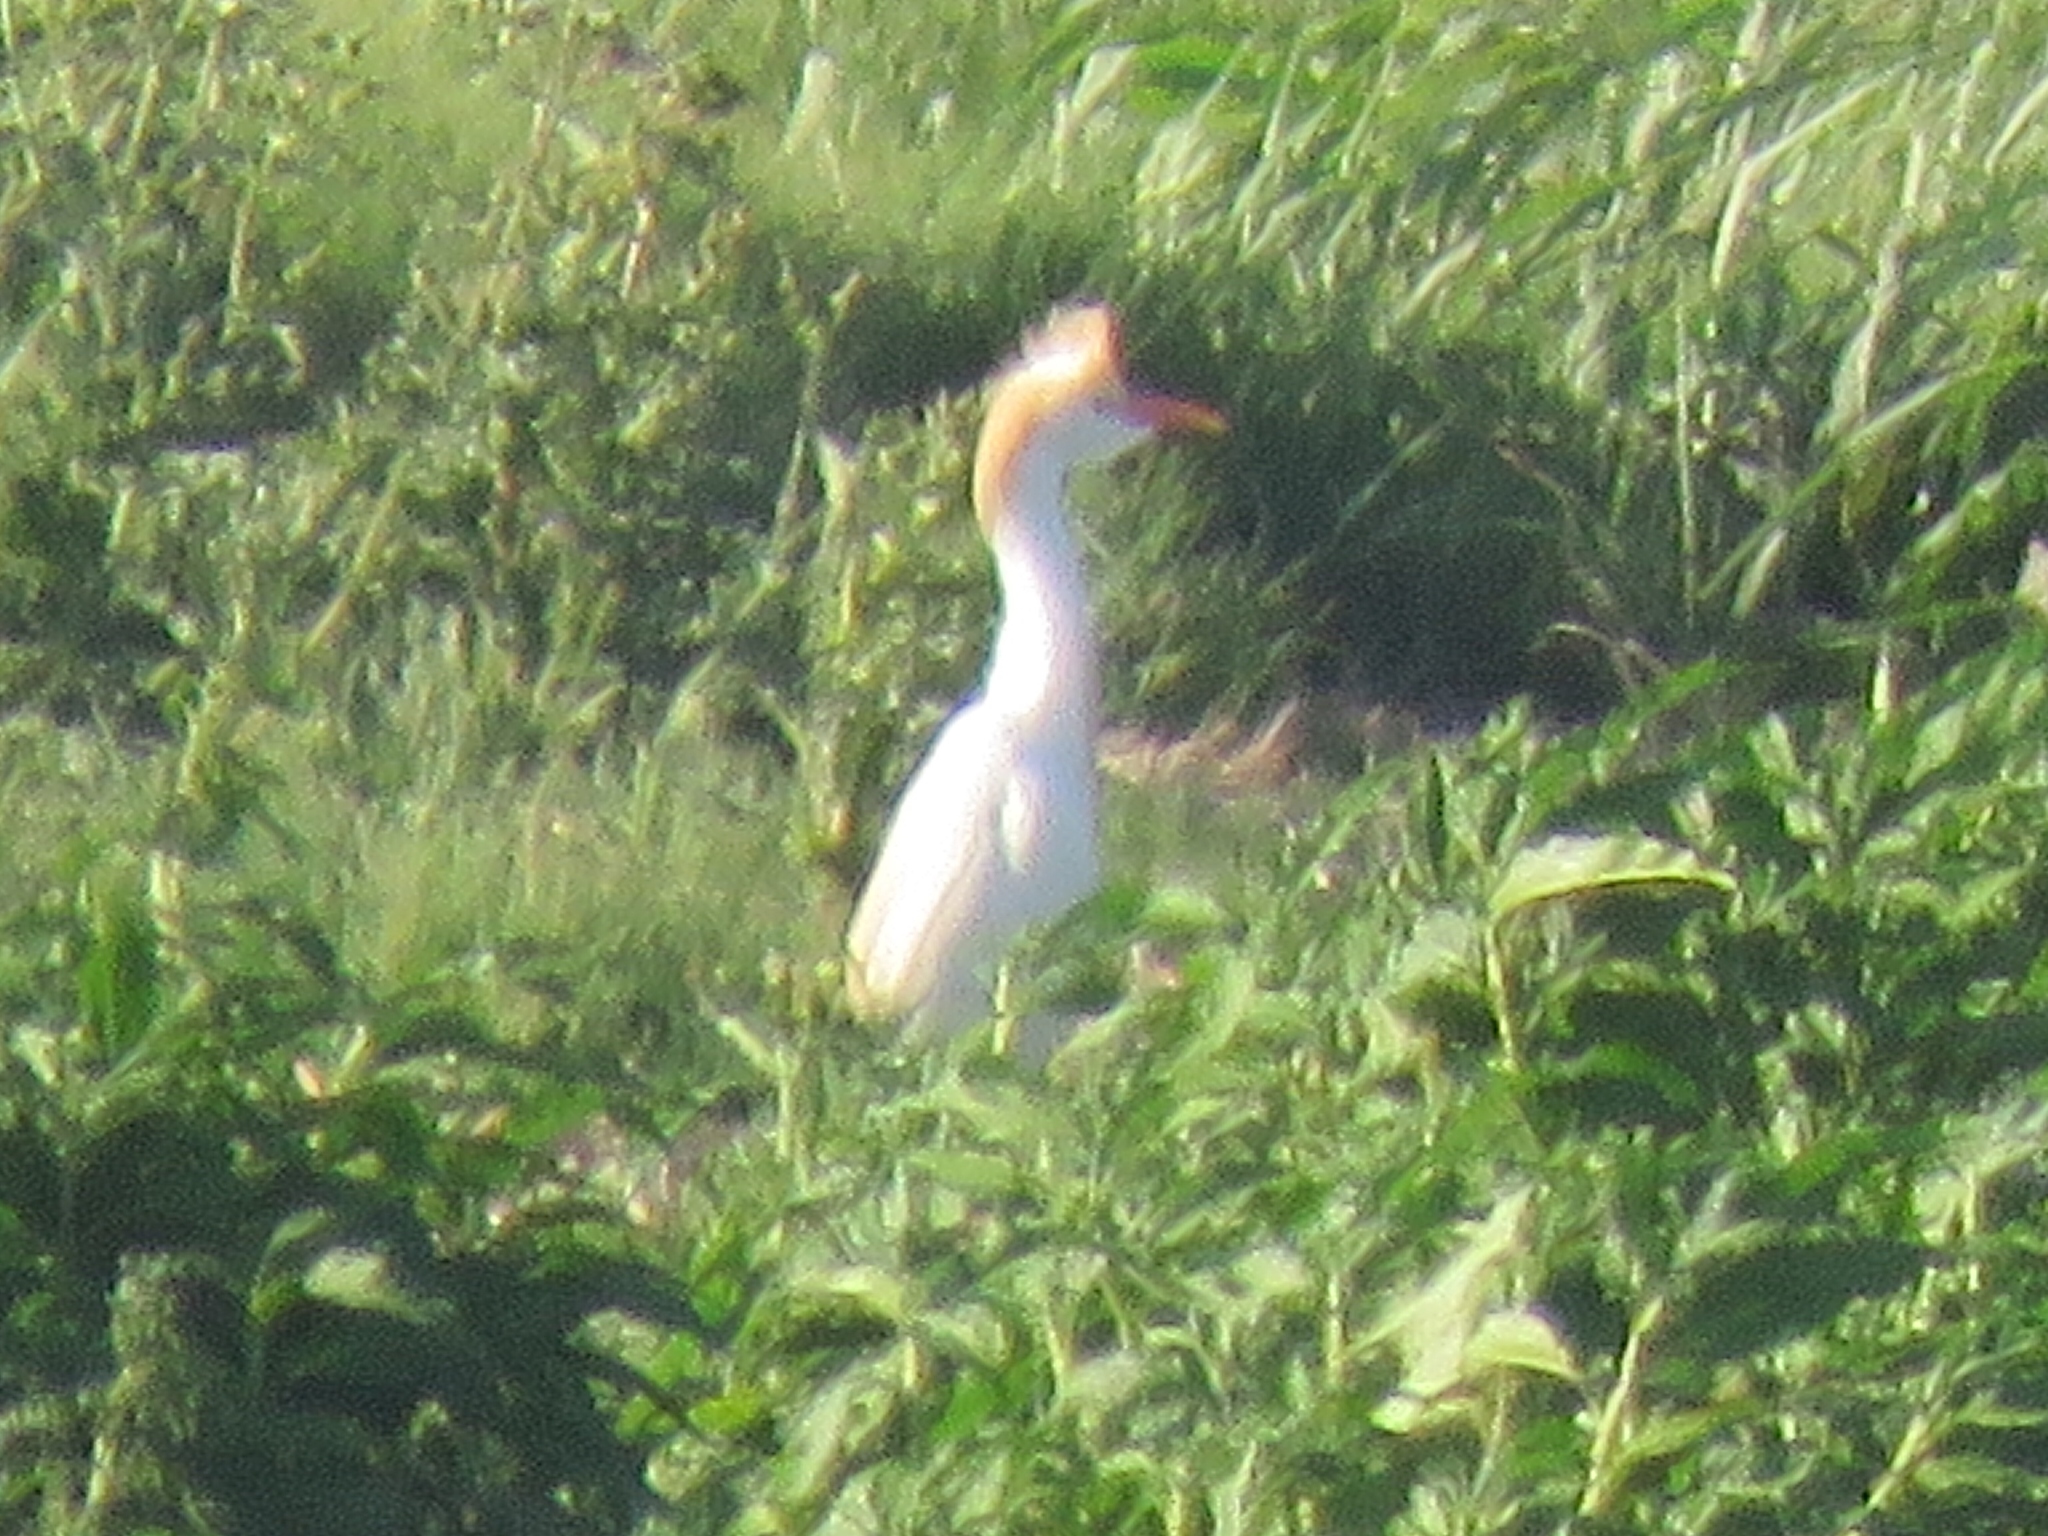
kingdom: Animalia
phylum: Chordata
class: Aves
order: Pelecaniformes
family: Ardeidae
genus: Bubulcus
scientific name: Bubulcus ibis
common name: Cattle egret
